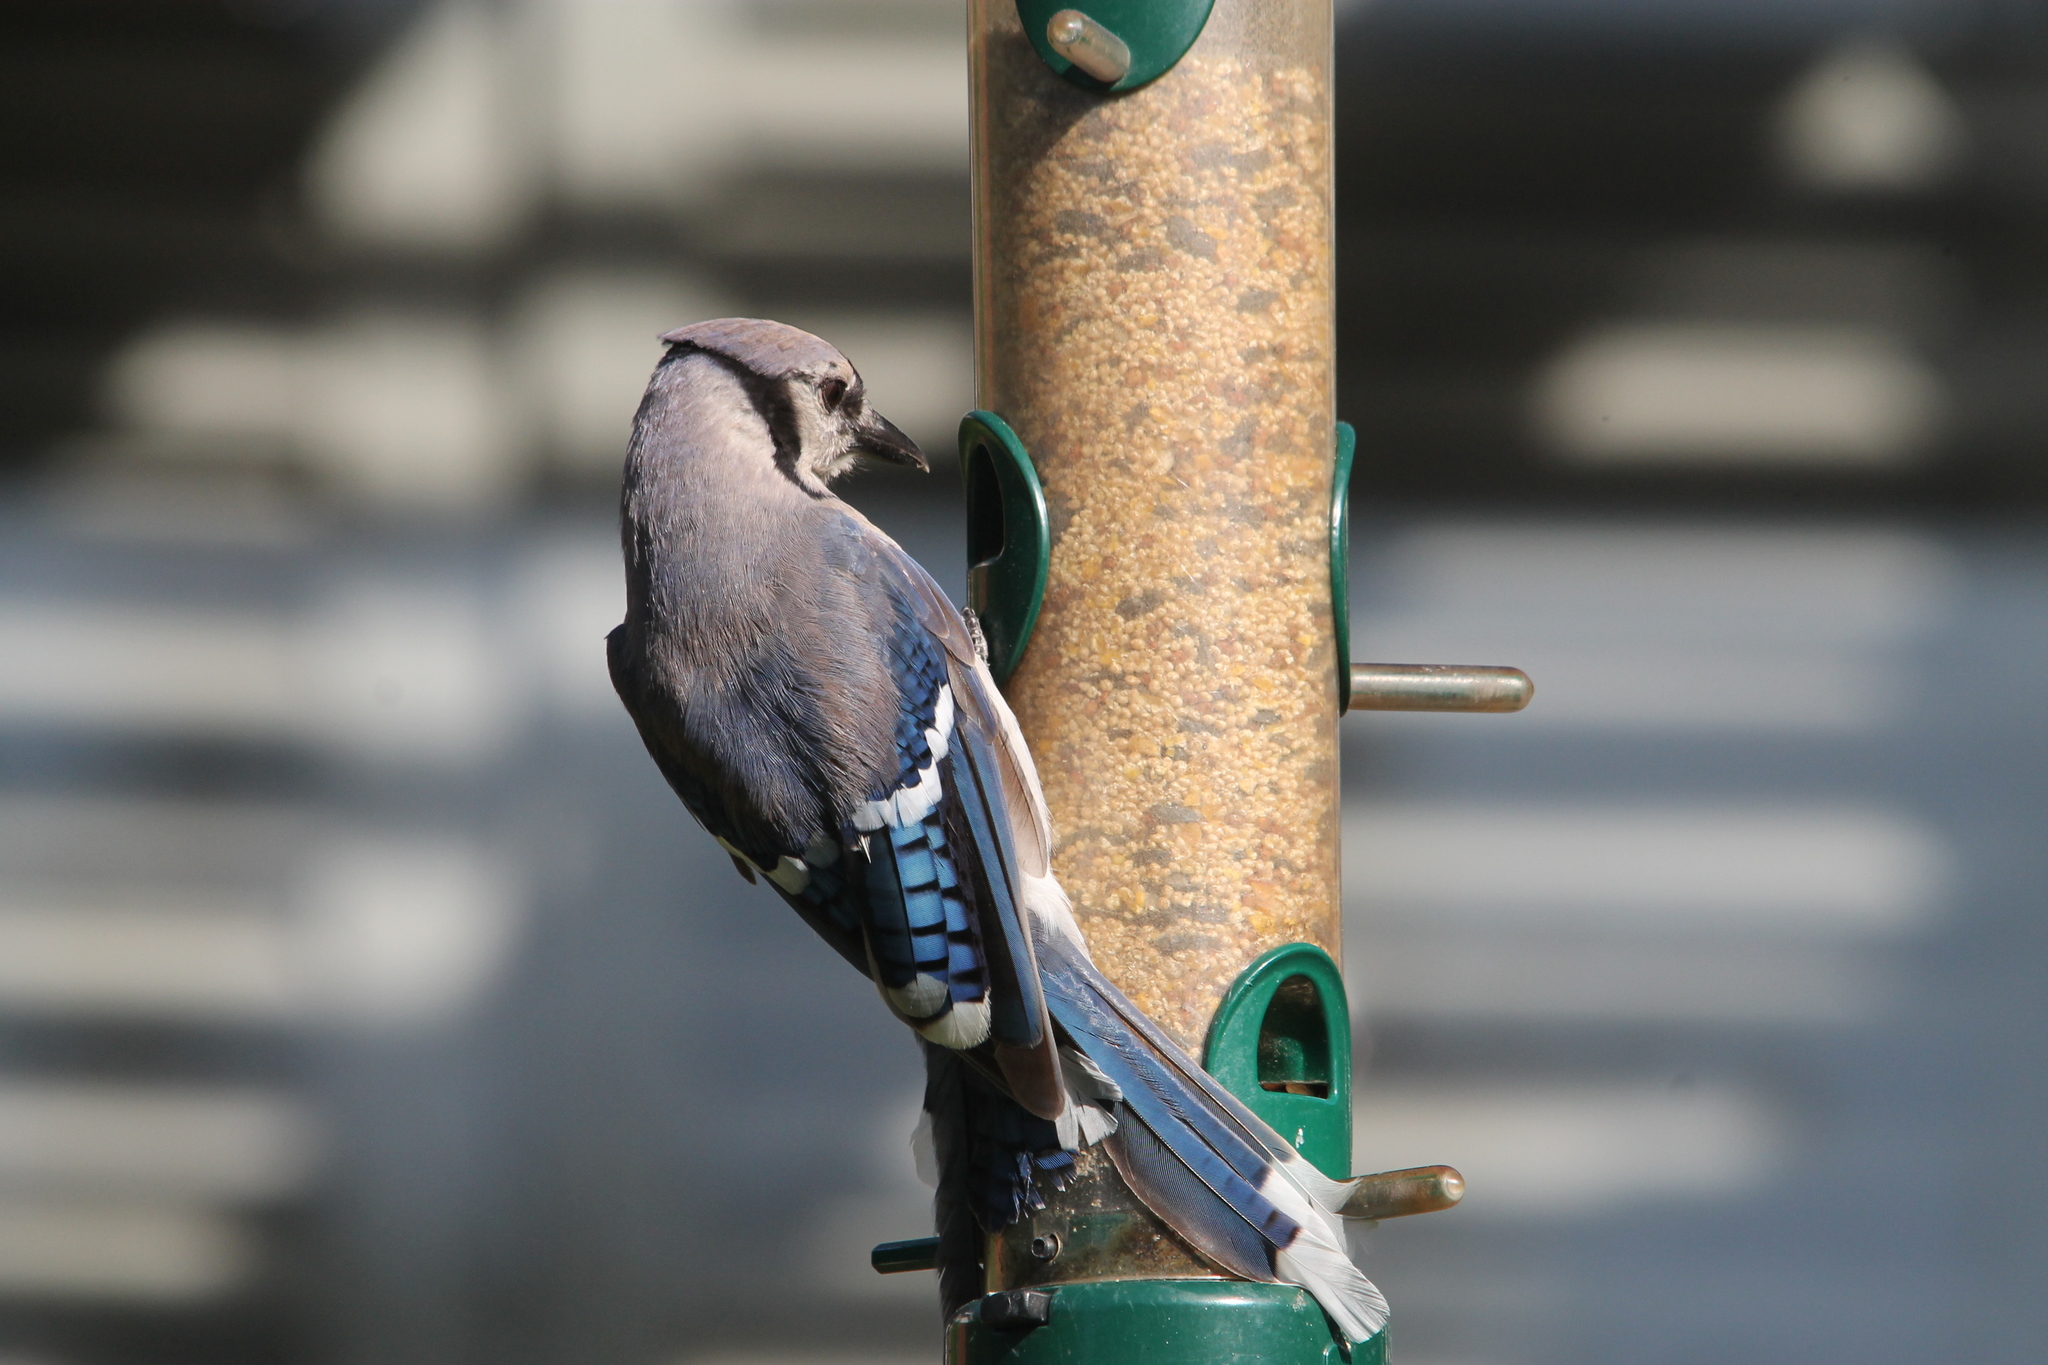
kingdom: Animalia
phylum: Chordata
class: Aves
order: Passeriformes
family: Corvidae
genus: Cyanocitta
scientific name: Cyanocitta cristata
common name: Blue jay
